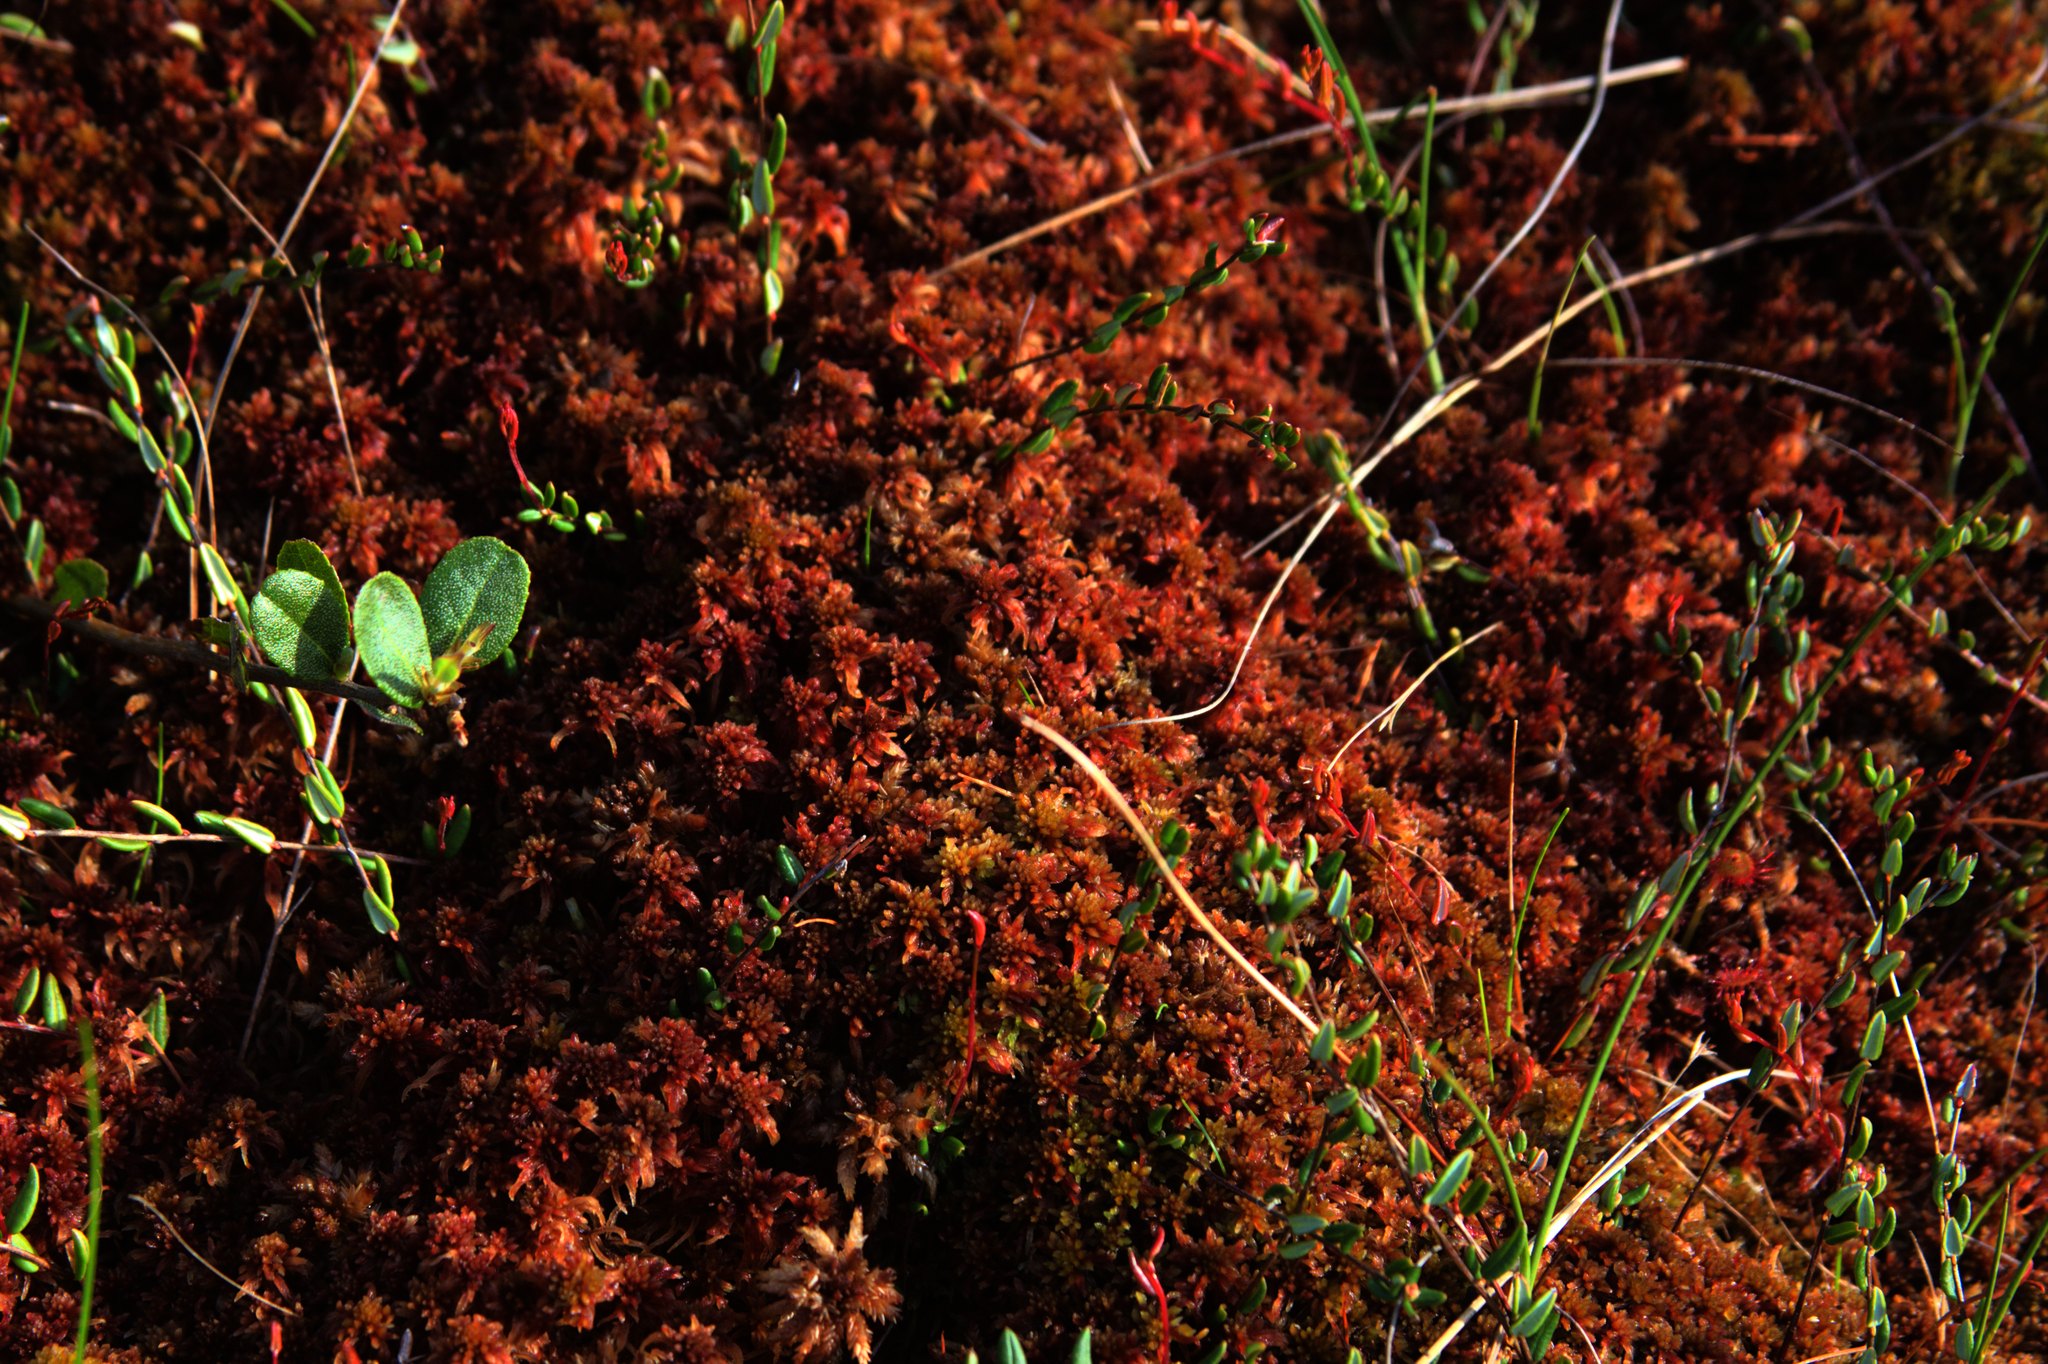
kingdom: Plantae
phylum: Tracheophyta
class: Magnoliopsida
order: Ericales
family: Ericaceae
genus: Vaccinium
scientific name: Vaccinium oxycoccos
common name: Cranberry
